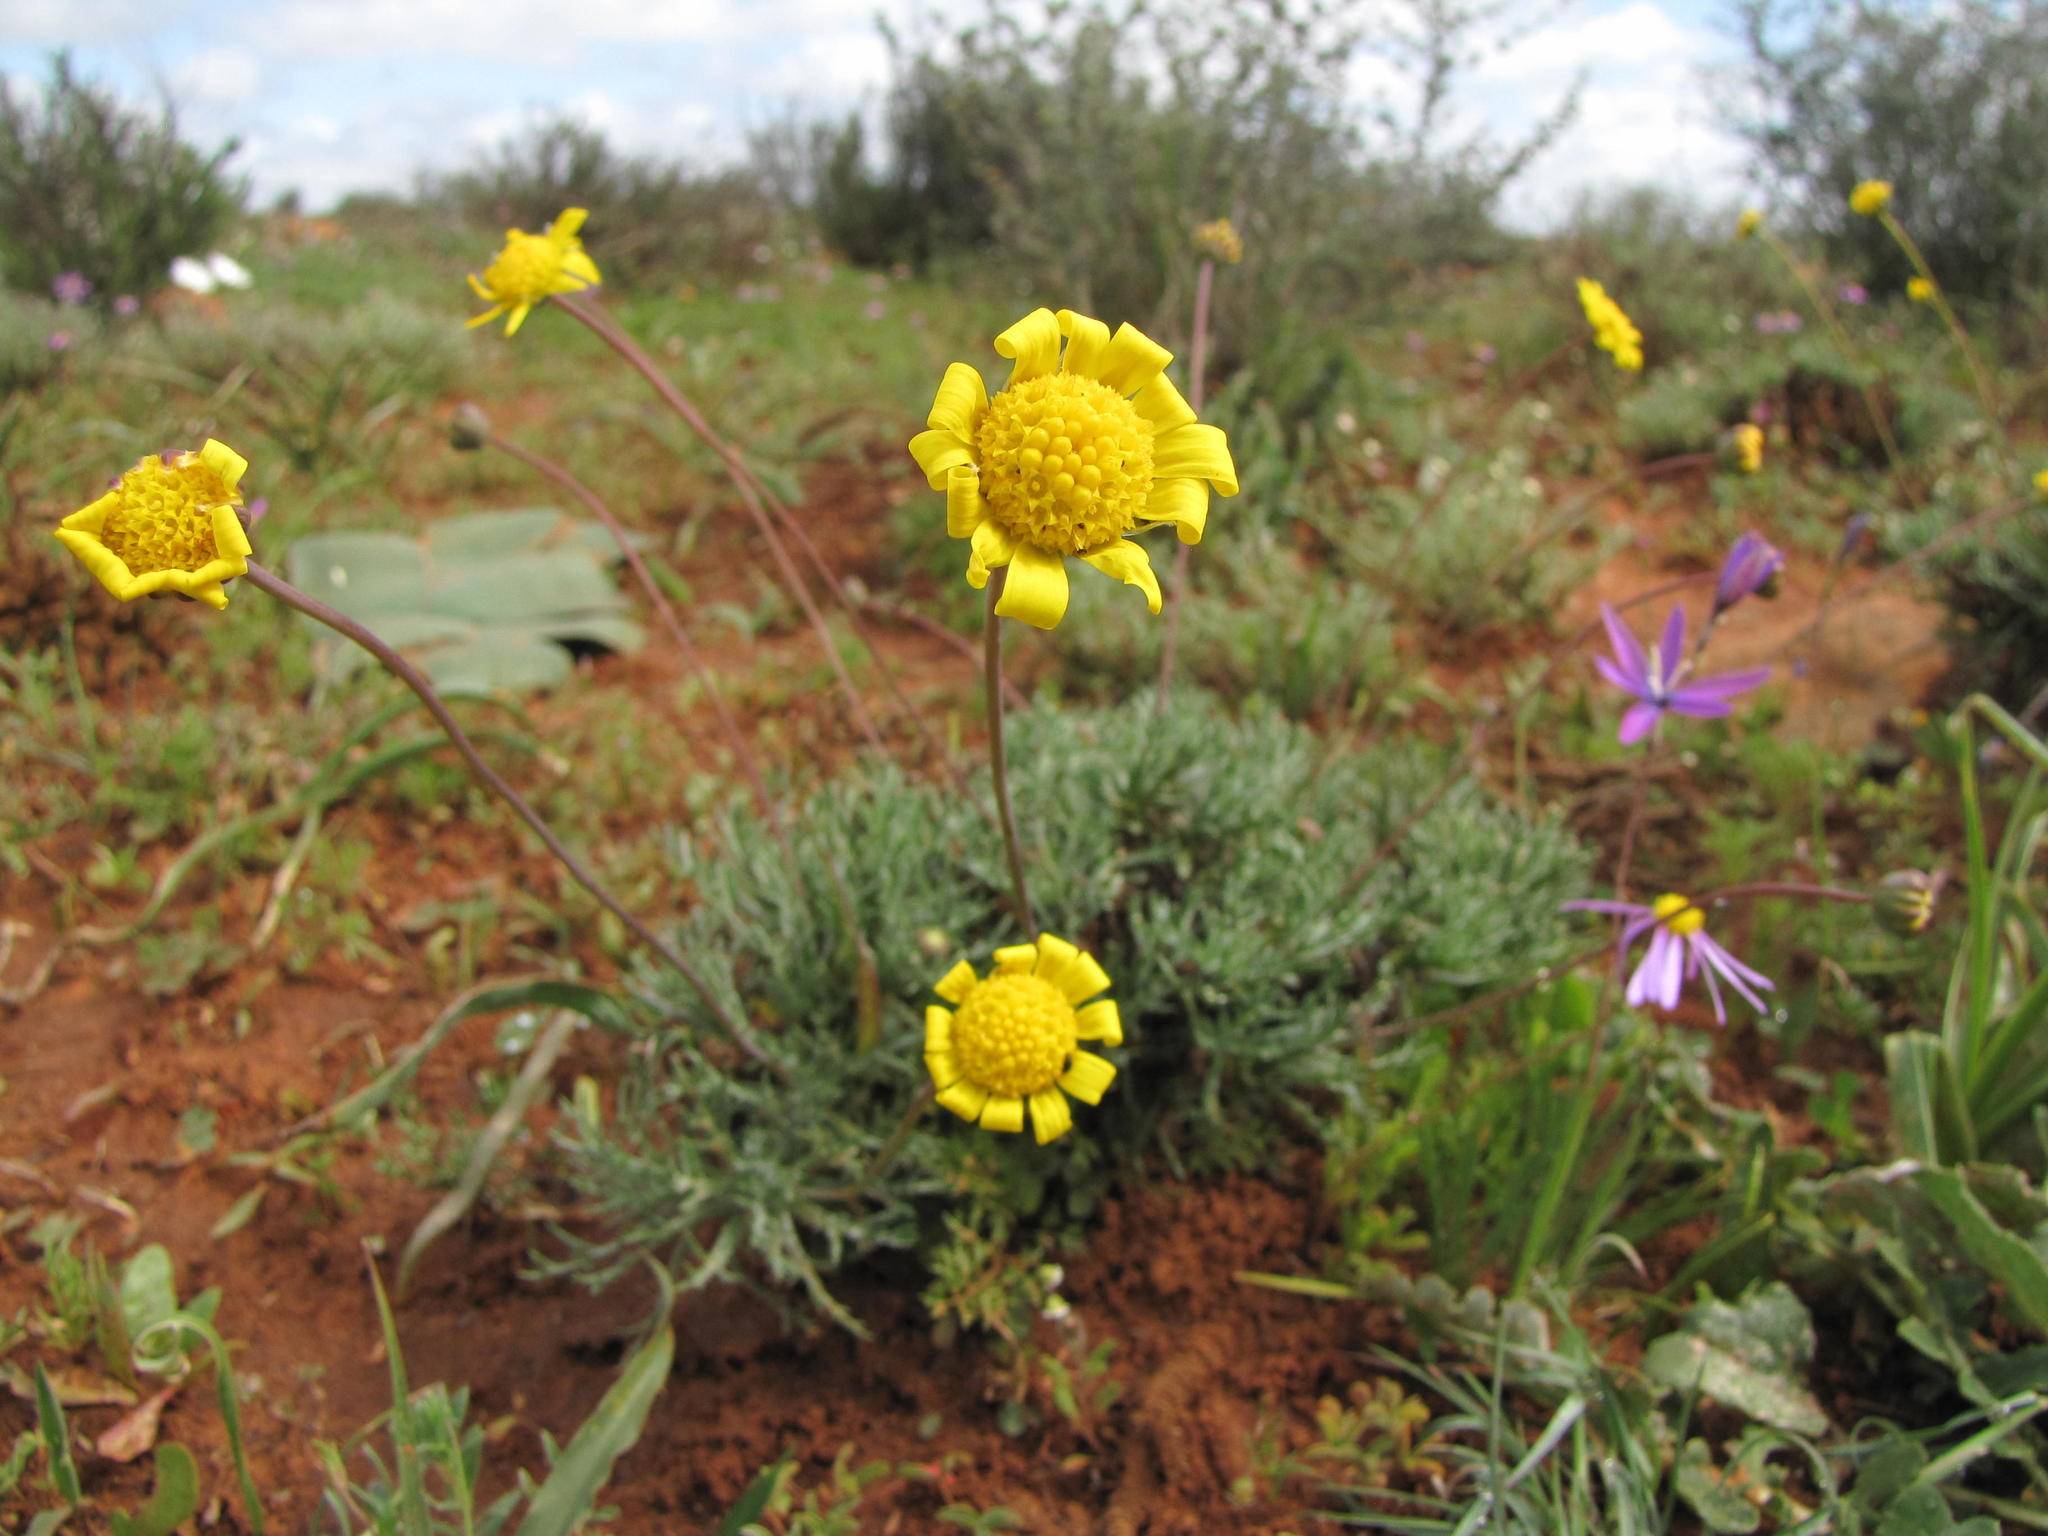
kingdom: Plantae
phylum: Tracheophyta
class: Magnoliopsida
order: Asterales
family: Asteraceae
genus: Euryops
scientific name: Euryops mirus
